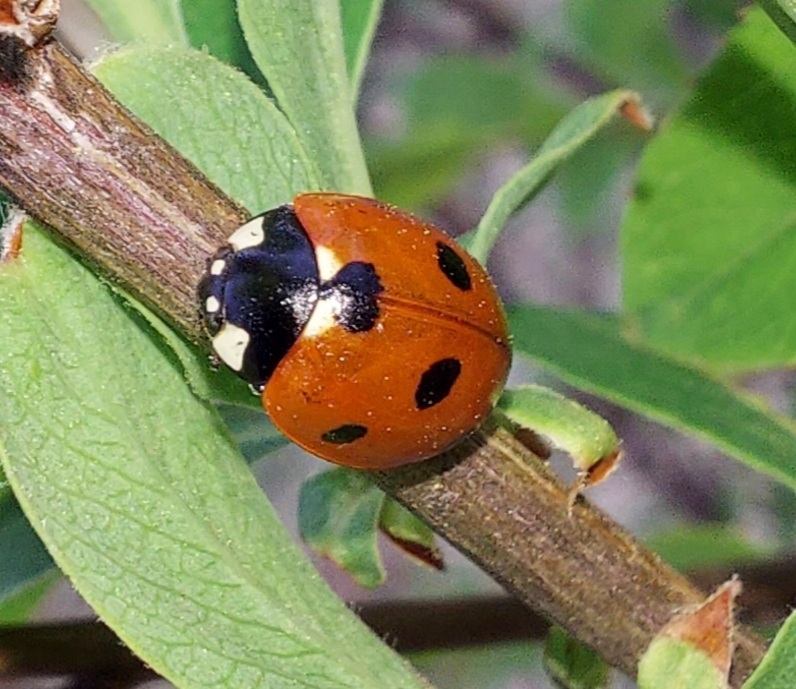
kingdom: Animalia
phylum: Arthropoda
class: Insecta
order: Coleoptera
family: Coccinellidae
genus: Coccinella
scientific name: Coccinella septempunctata
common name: Sevenspotted lady beetle
